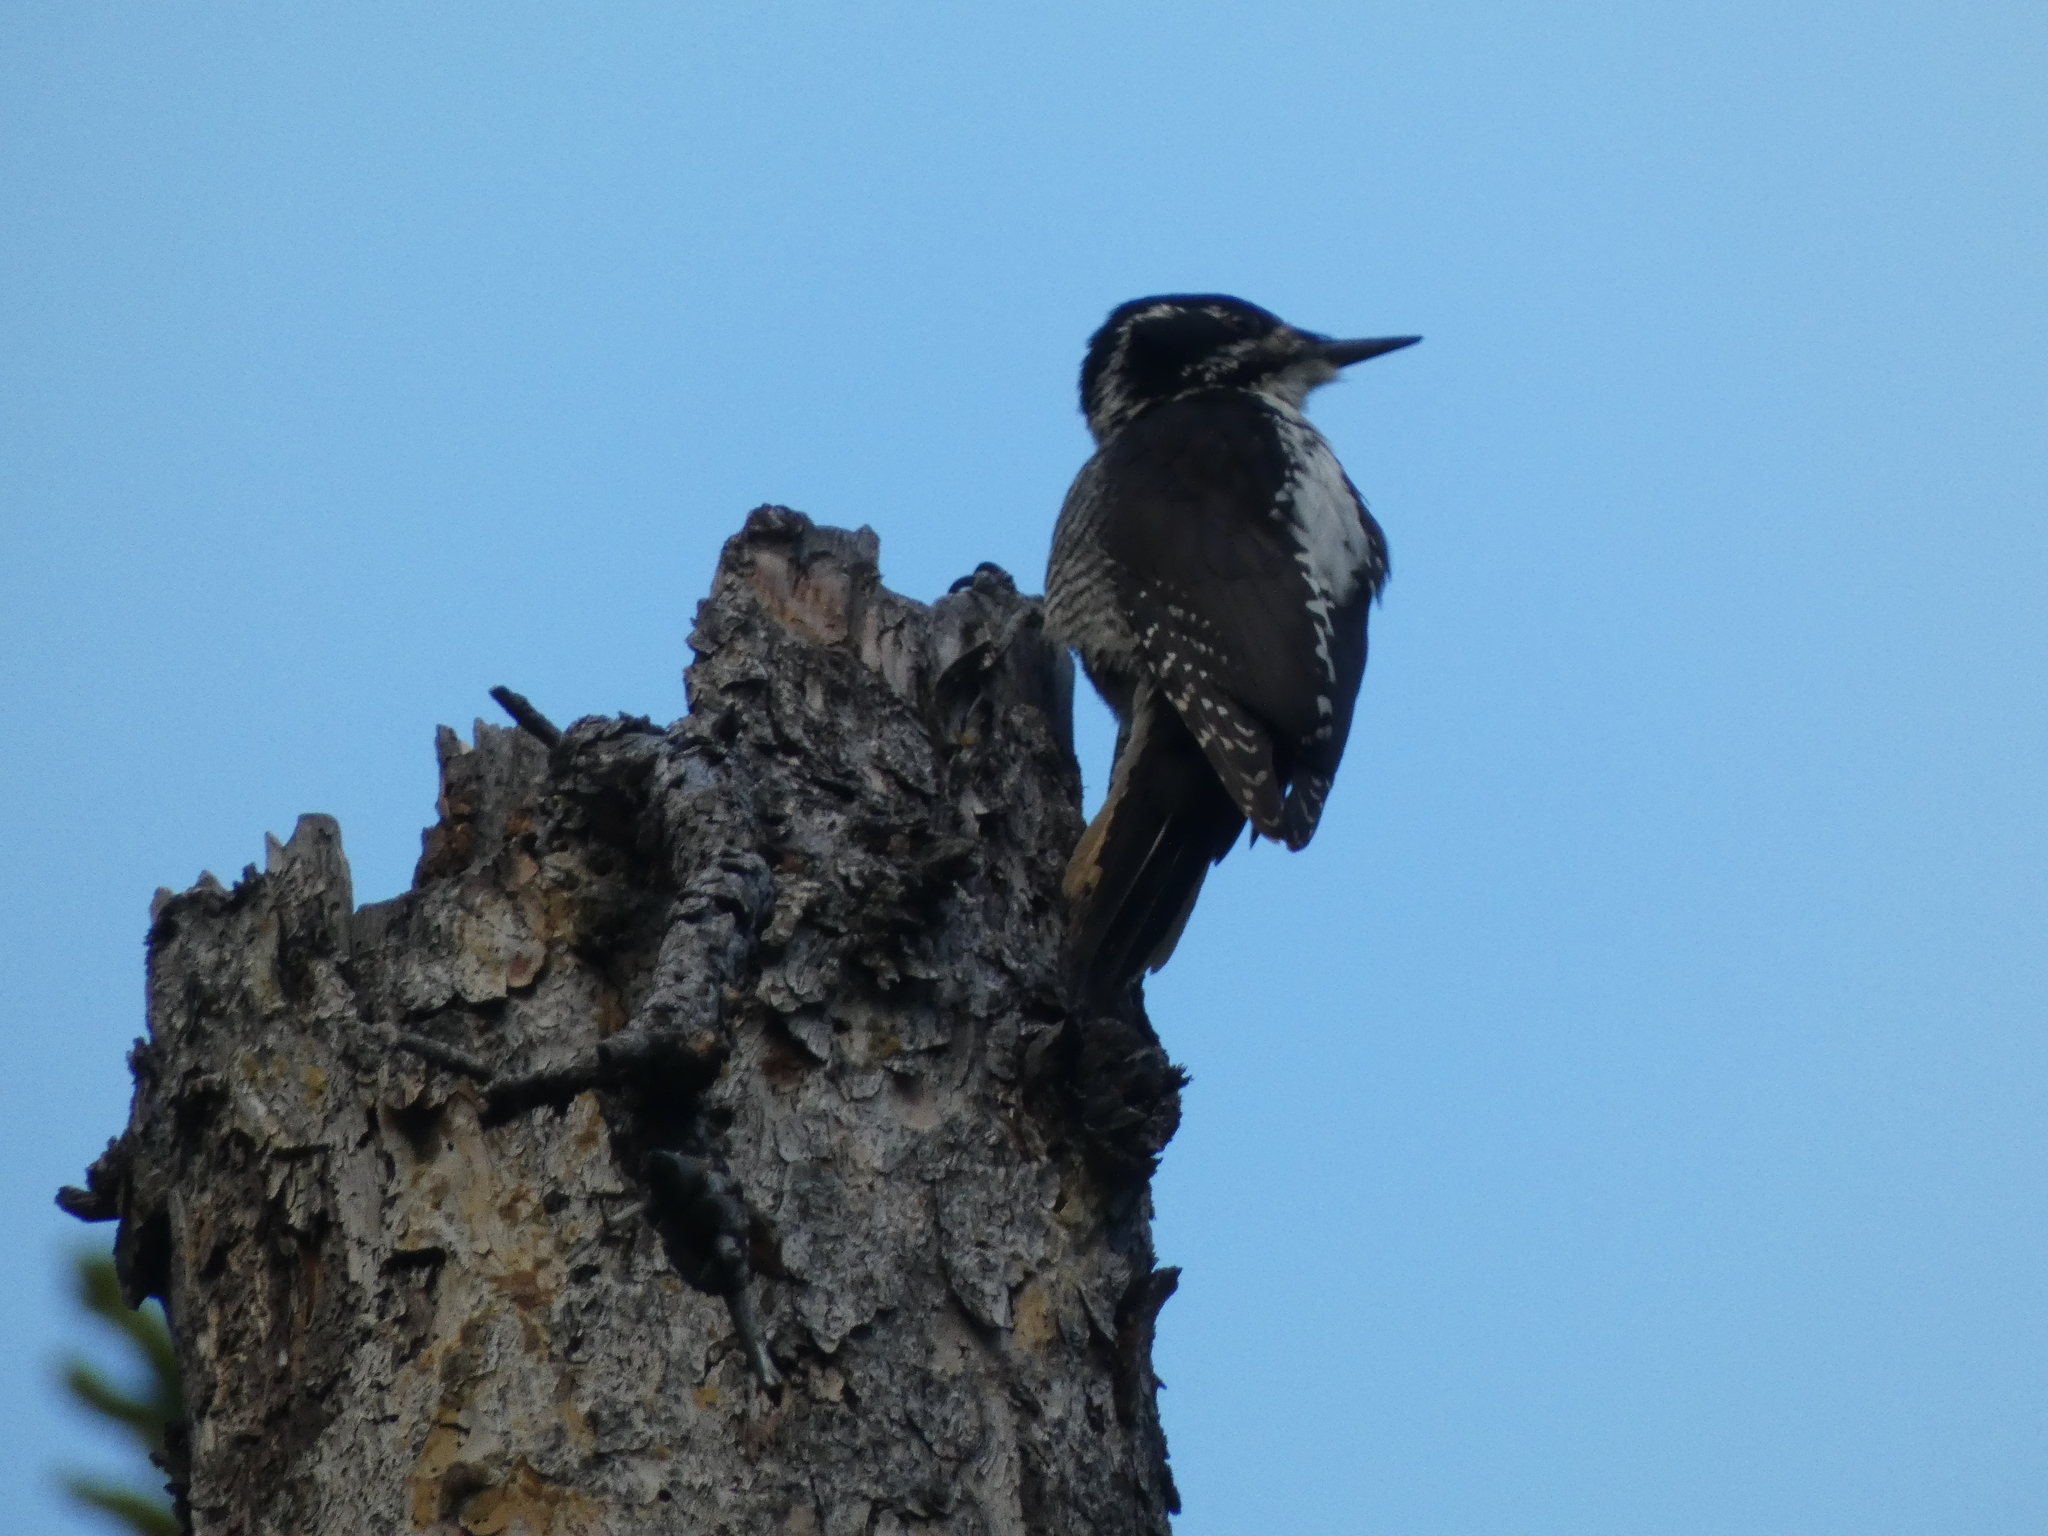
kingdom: Animalia
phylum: Chordata
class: Aves
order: Piciformes
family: Picidae
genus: Picoides
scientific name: Picoides dorsalis
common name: American three-toed woodpecker
